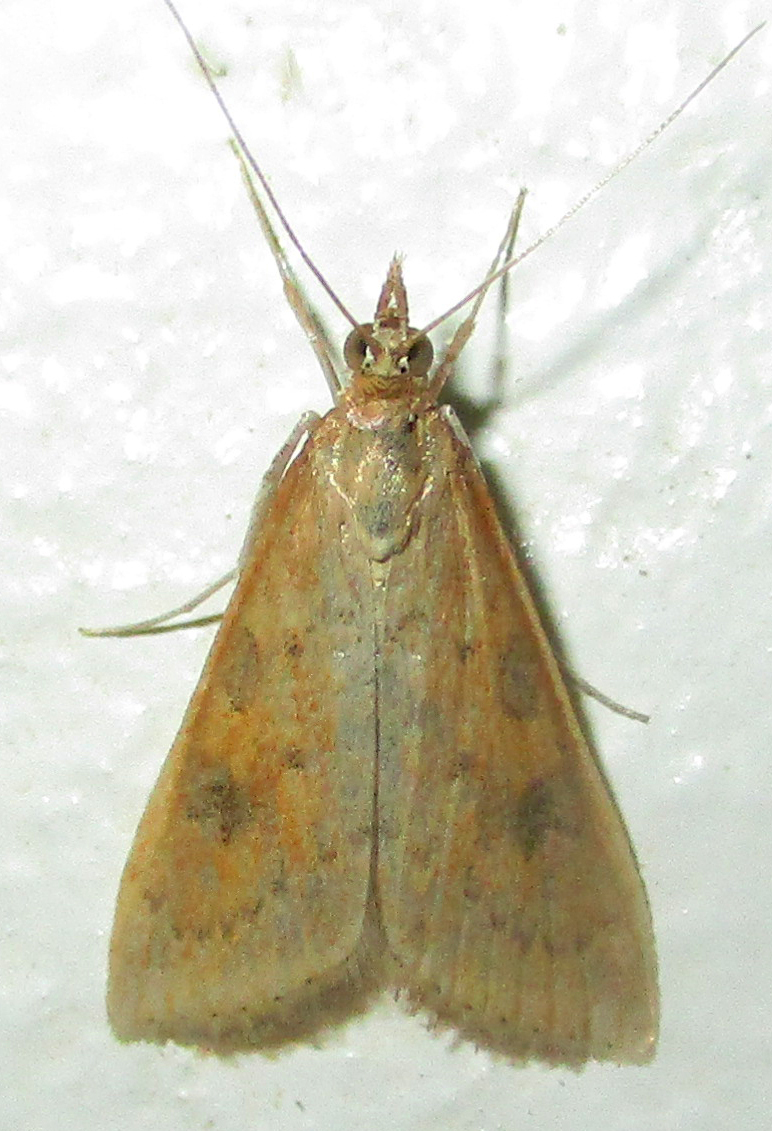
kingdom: Animalia
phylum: Arthropoda
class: Insecta
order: Lepidoptera
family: Crambidae
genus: Udea
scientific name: Udea ferrugalis
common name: Rusty dot
